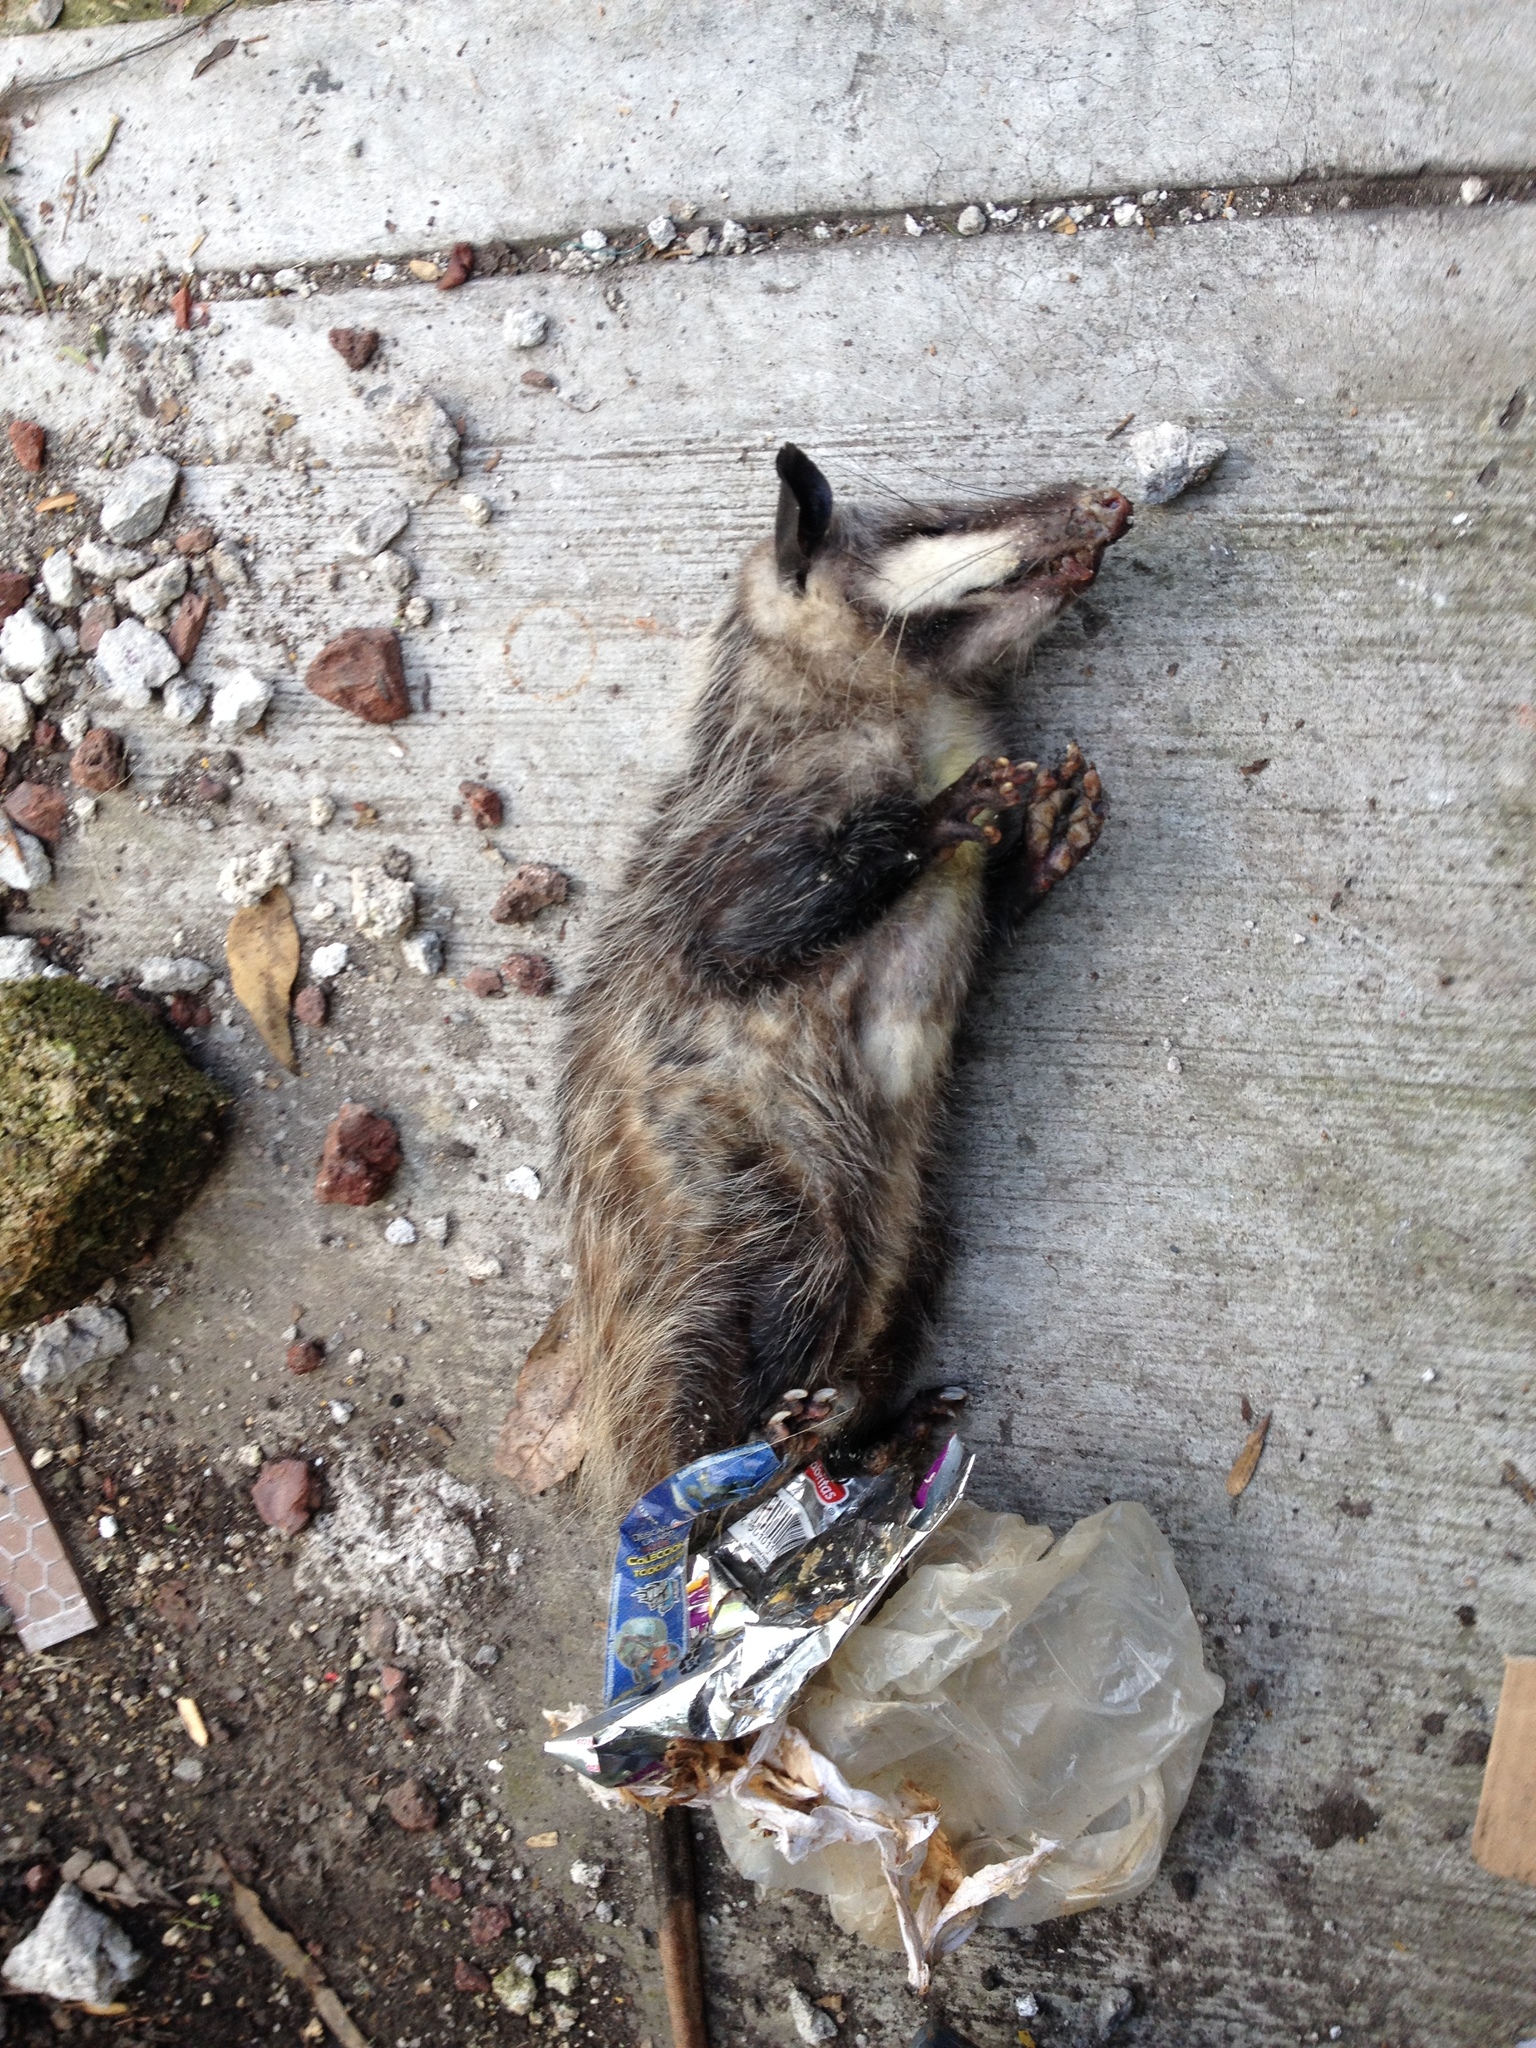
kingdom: Animalia
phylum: Chordata
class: Mammalia
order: Didelphimorphia
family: Didelphidae
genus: Didelphis
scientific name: Didelphis virginiana
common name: Virginia opossum
